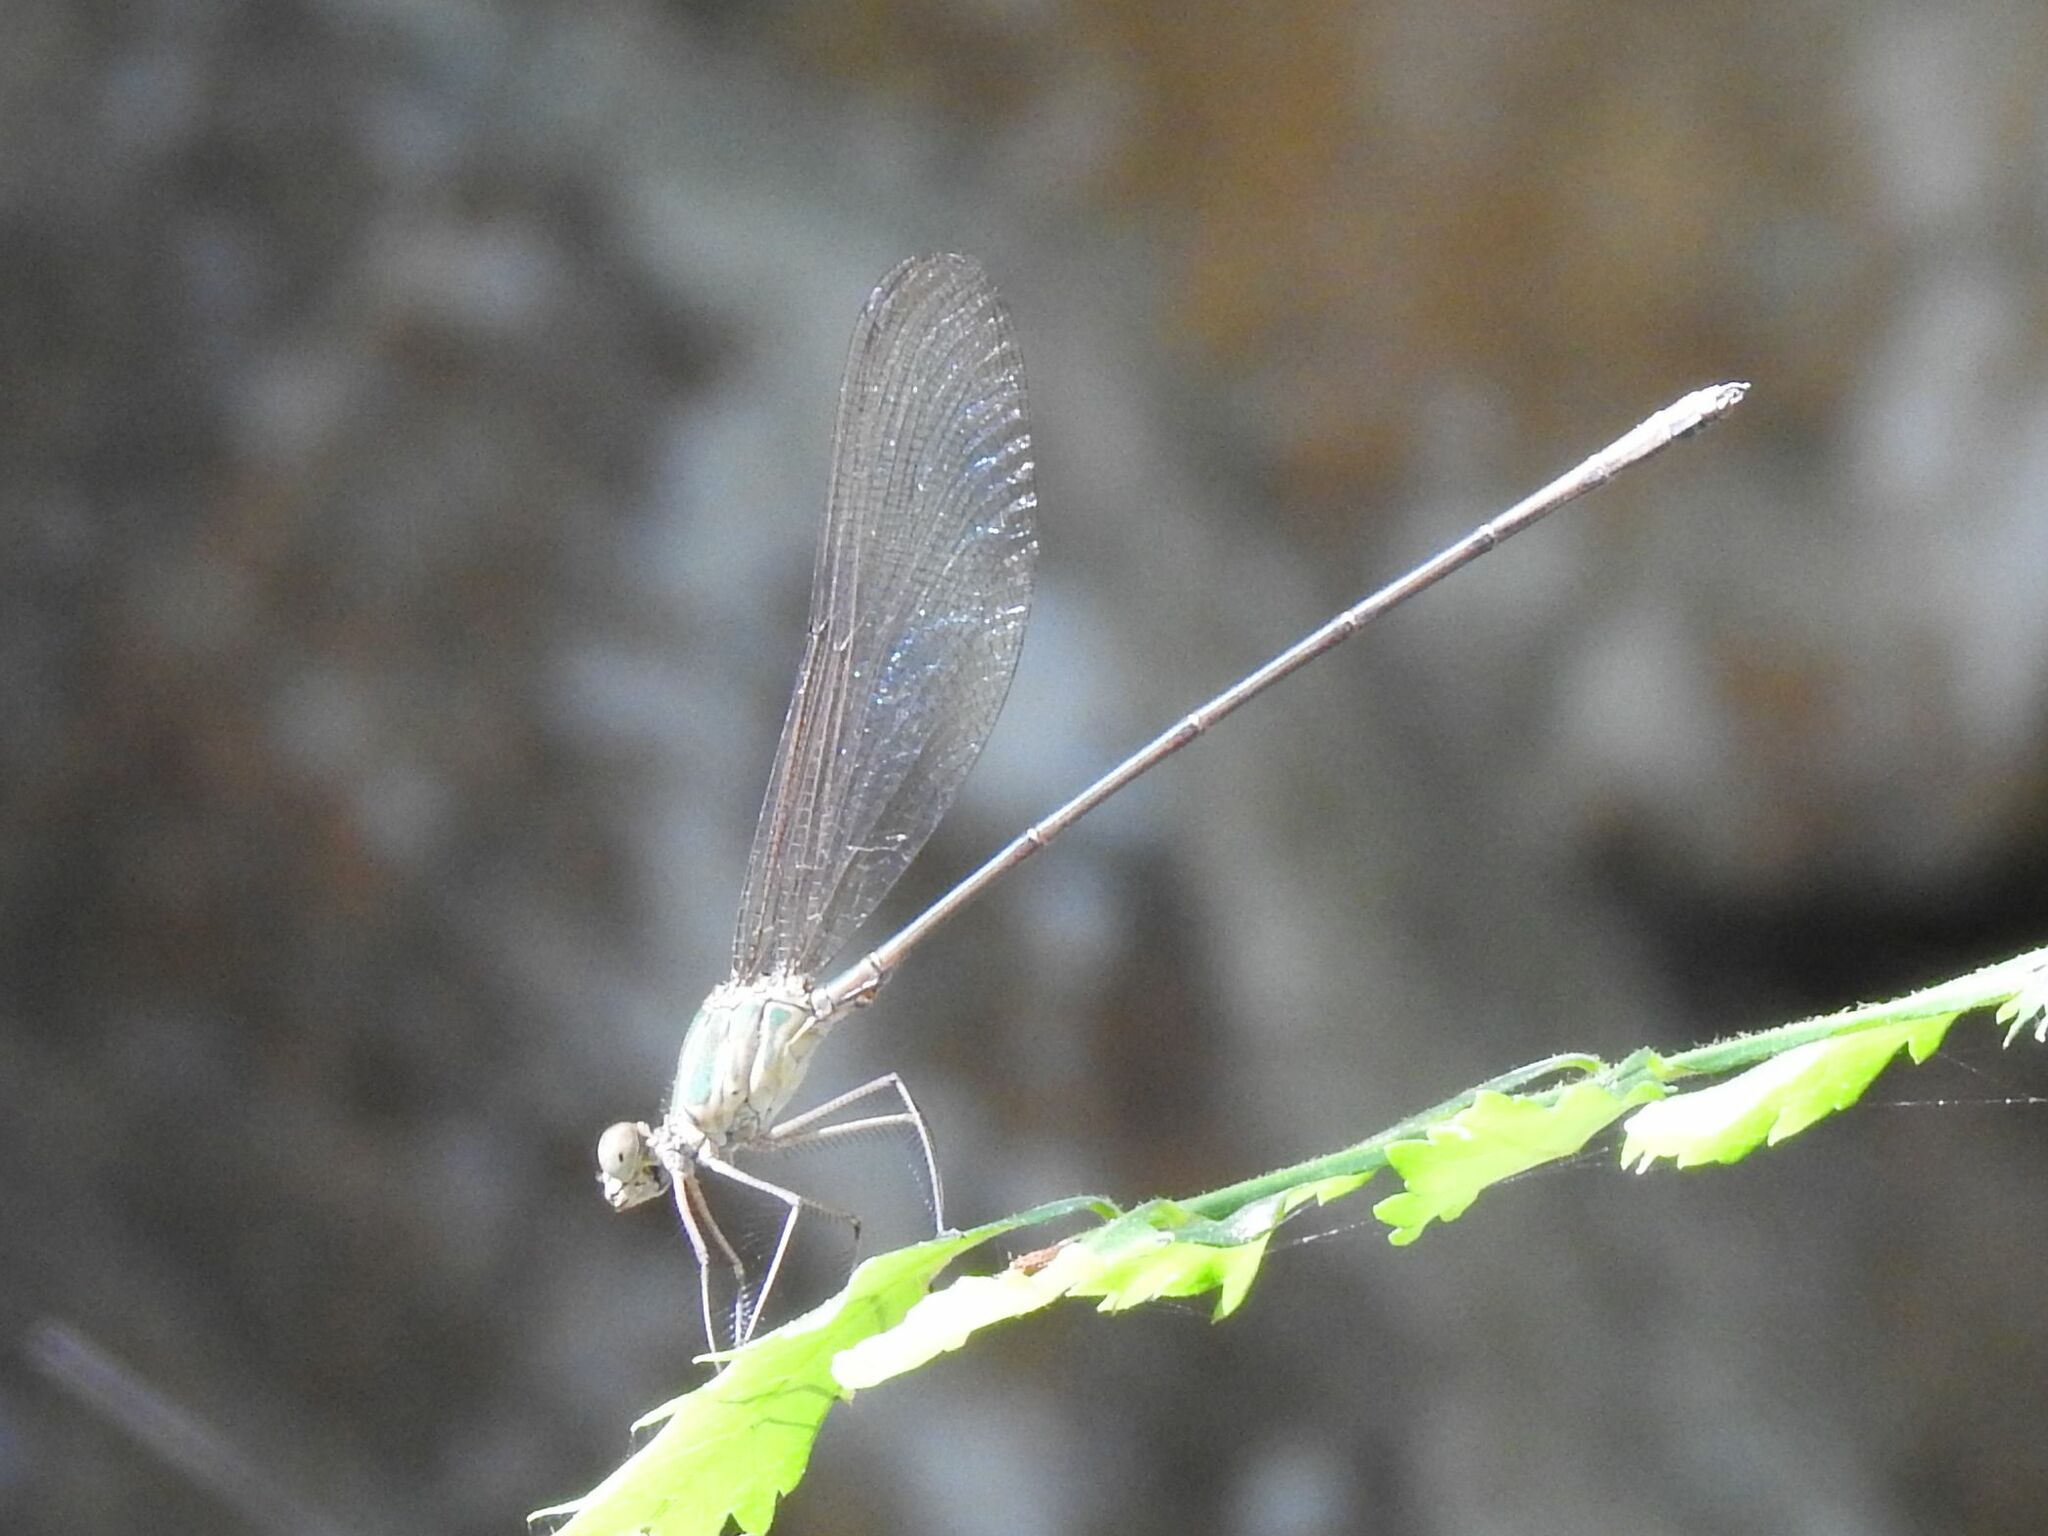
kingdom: Animalia
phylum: Arthropoda
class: Insecta
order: Odonata
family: Calopterygidae
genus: Phaon
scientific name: Phaon iridipennis
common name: Glistening demoiselle
